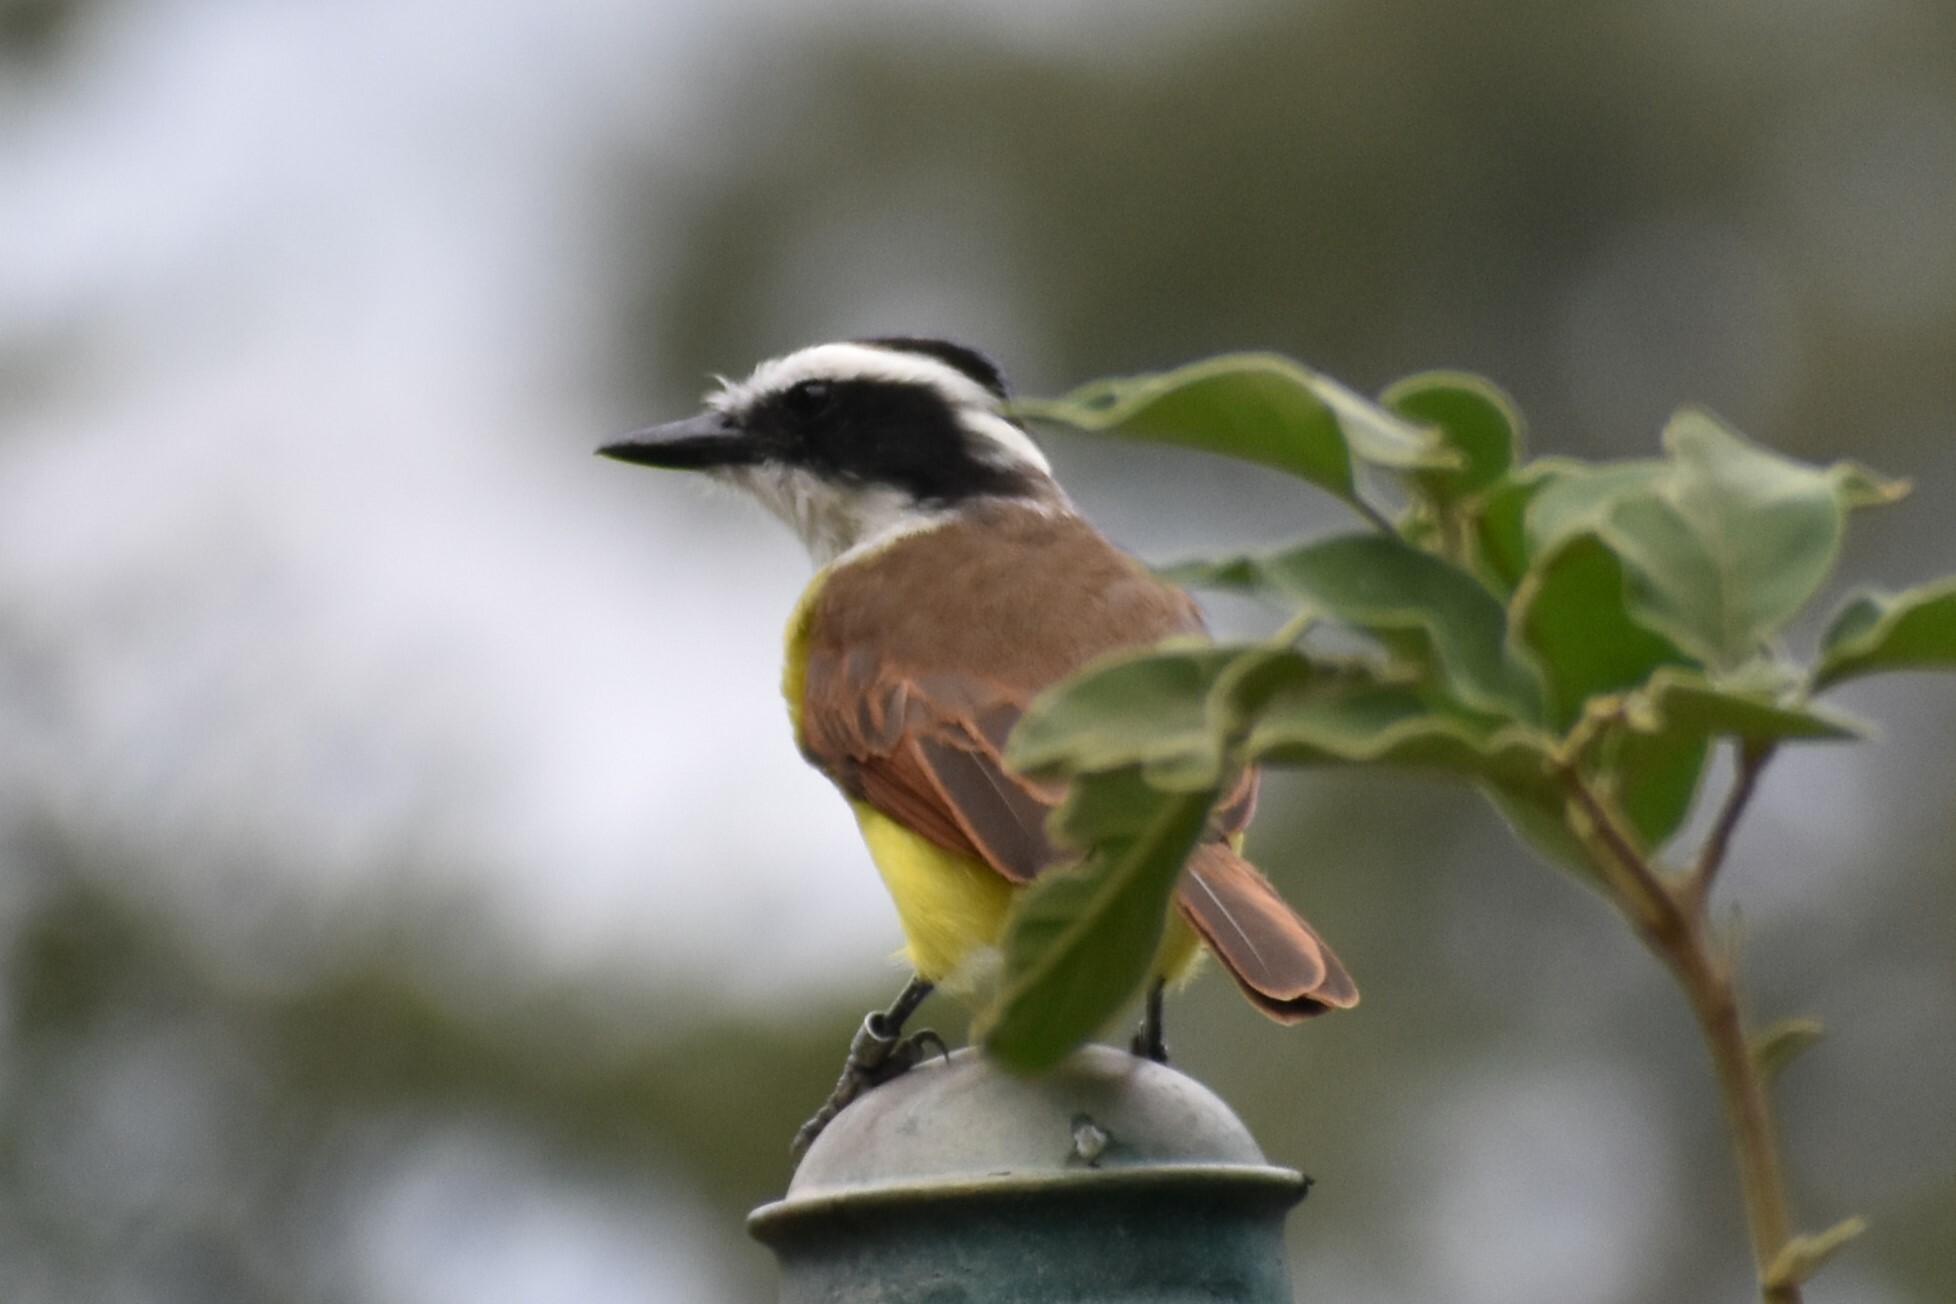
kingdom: Animalia
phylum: Chordata
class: Aves
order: Passeriformes
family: Tyrannidae
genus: Pitangus
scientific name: Pitangus sulphuratus
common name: Great kiskadee
